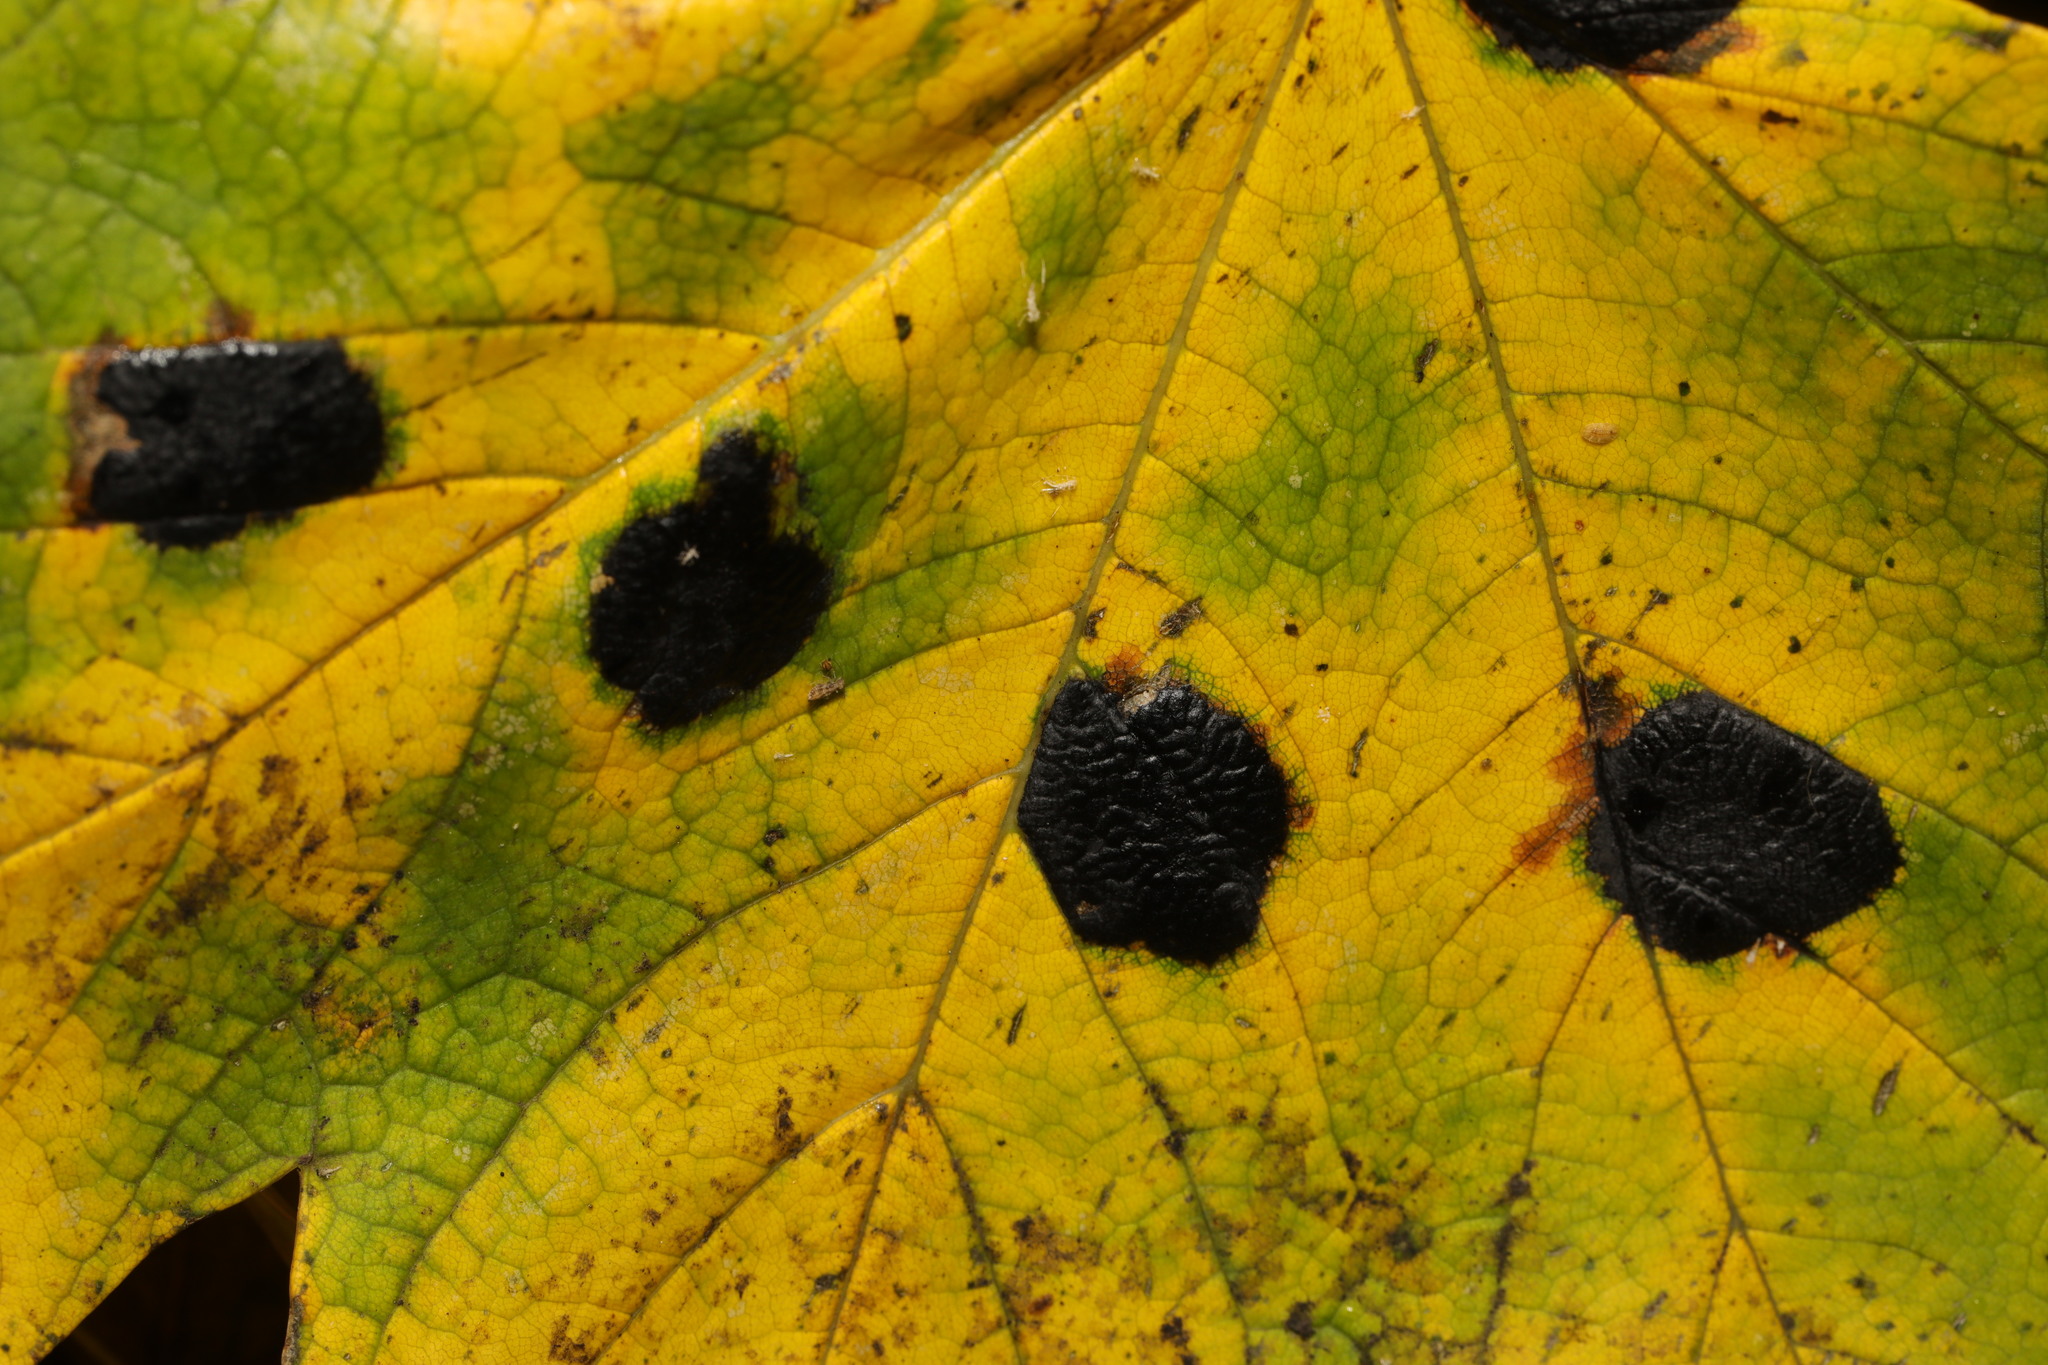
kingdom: Fungi
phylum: Ascomycota
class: Leotiomycetes
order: Rhytismatales
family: Rhytismataceae
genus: Rhytisma
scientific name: Rhytisma acerinum
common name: European tar spot
